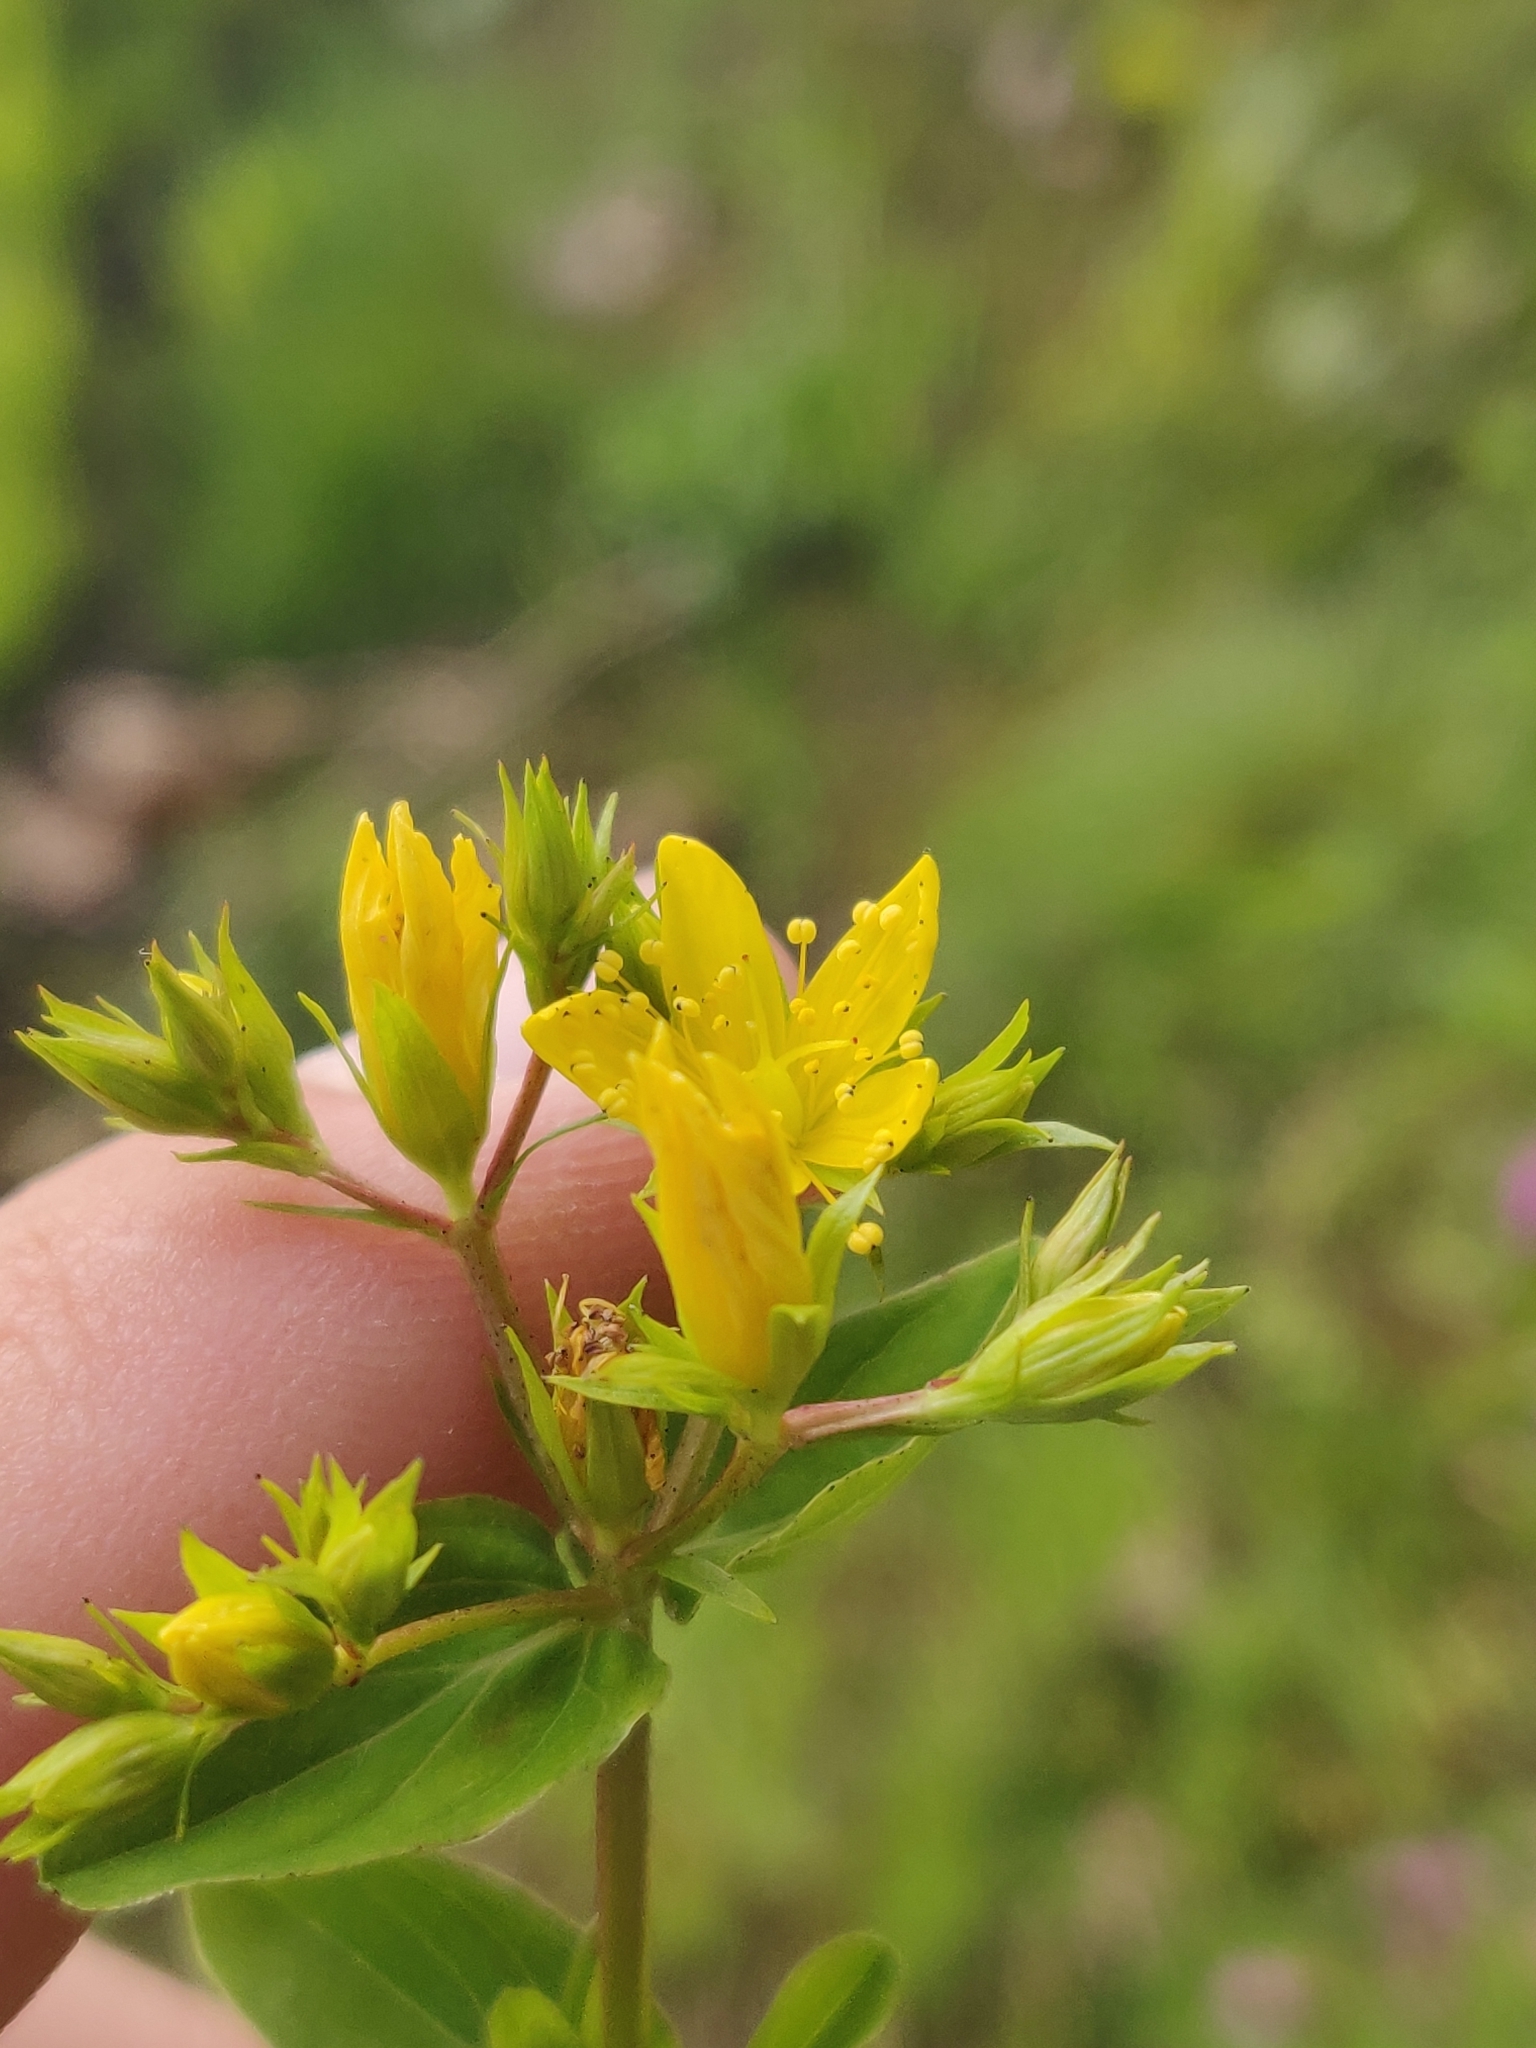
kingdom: Plantae
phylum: Tracheophyta
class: Magnoliopsida
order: Malpighiales
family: Hypericaceae
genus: Hypericum
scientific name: Hypericum tetrapterum
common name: Square-stalked st. john's-wort
